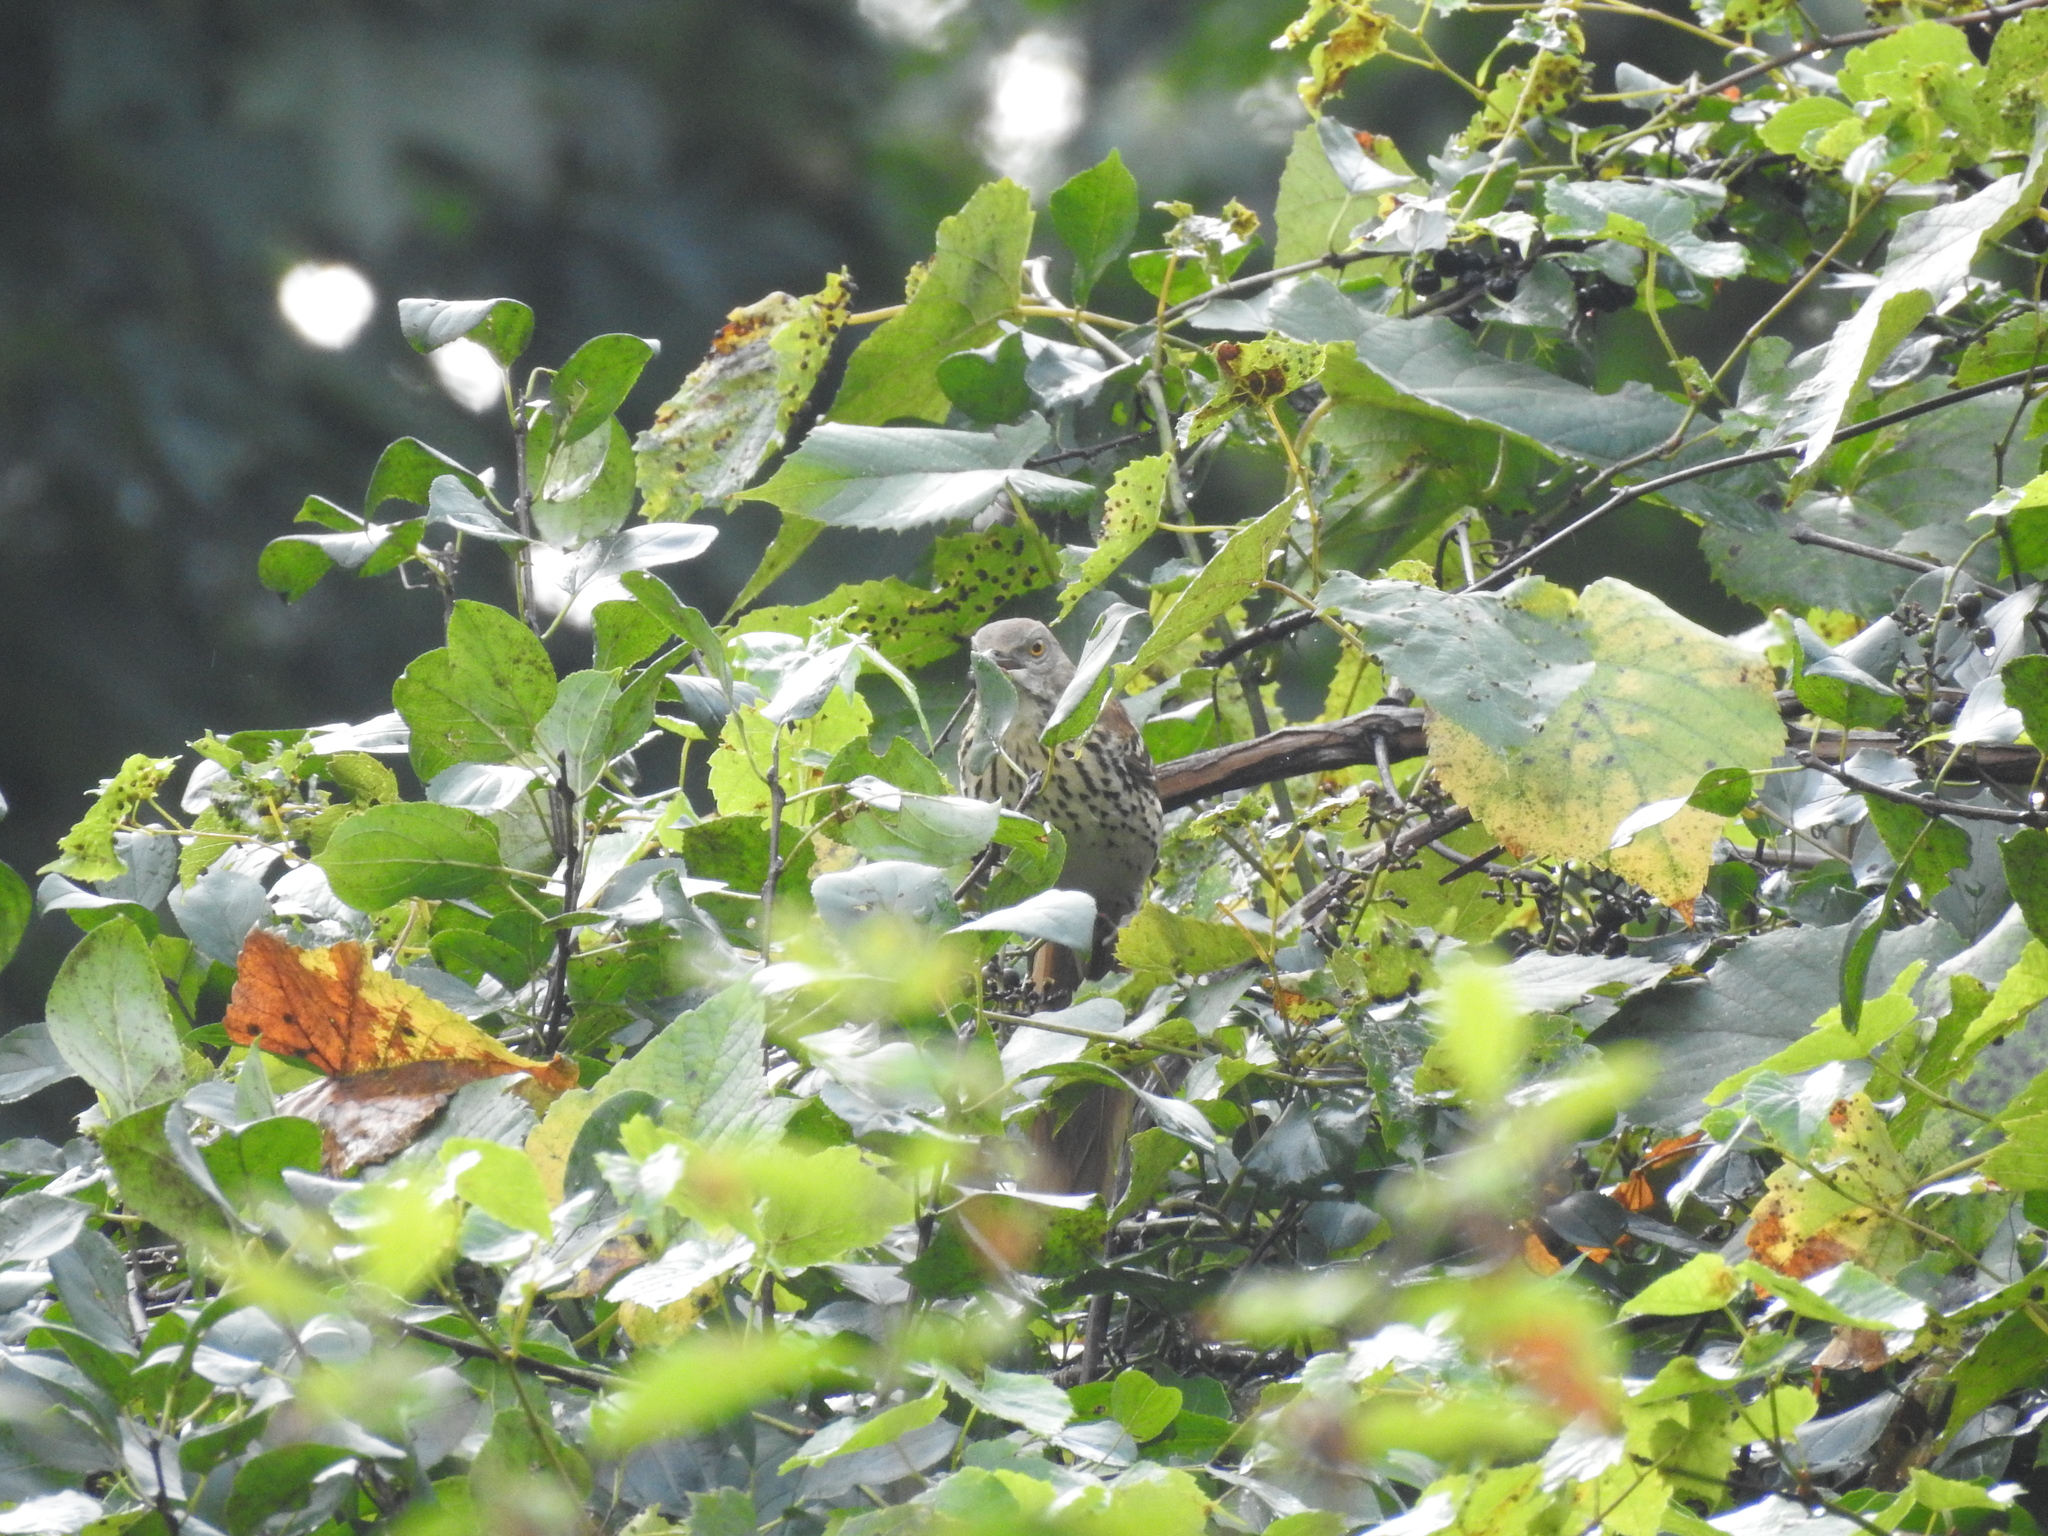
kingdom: Animalia
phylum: Chordata
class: Aves
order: Passeriformes
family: Mimidae
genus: Toxostoma
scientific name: Toxostoma rufum
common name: Brown thrasher
